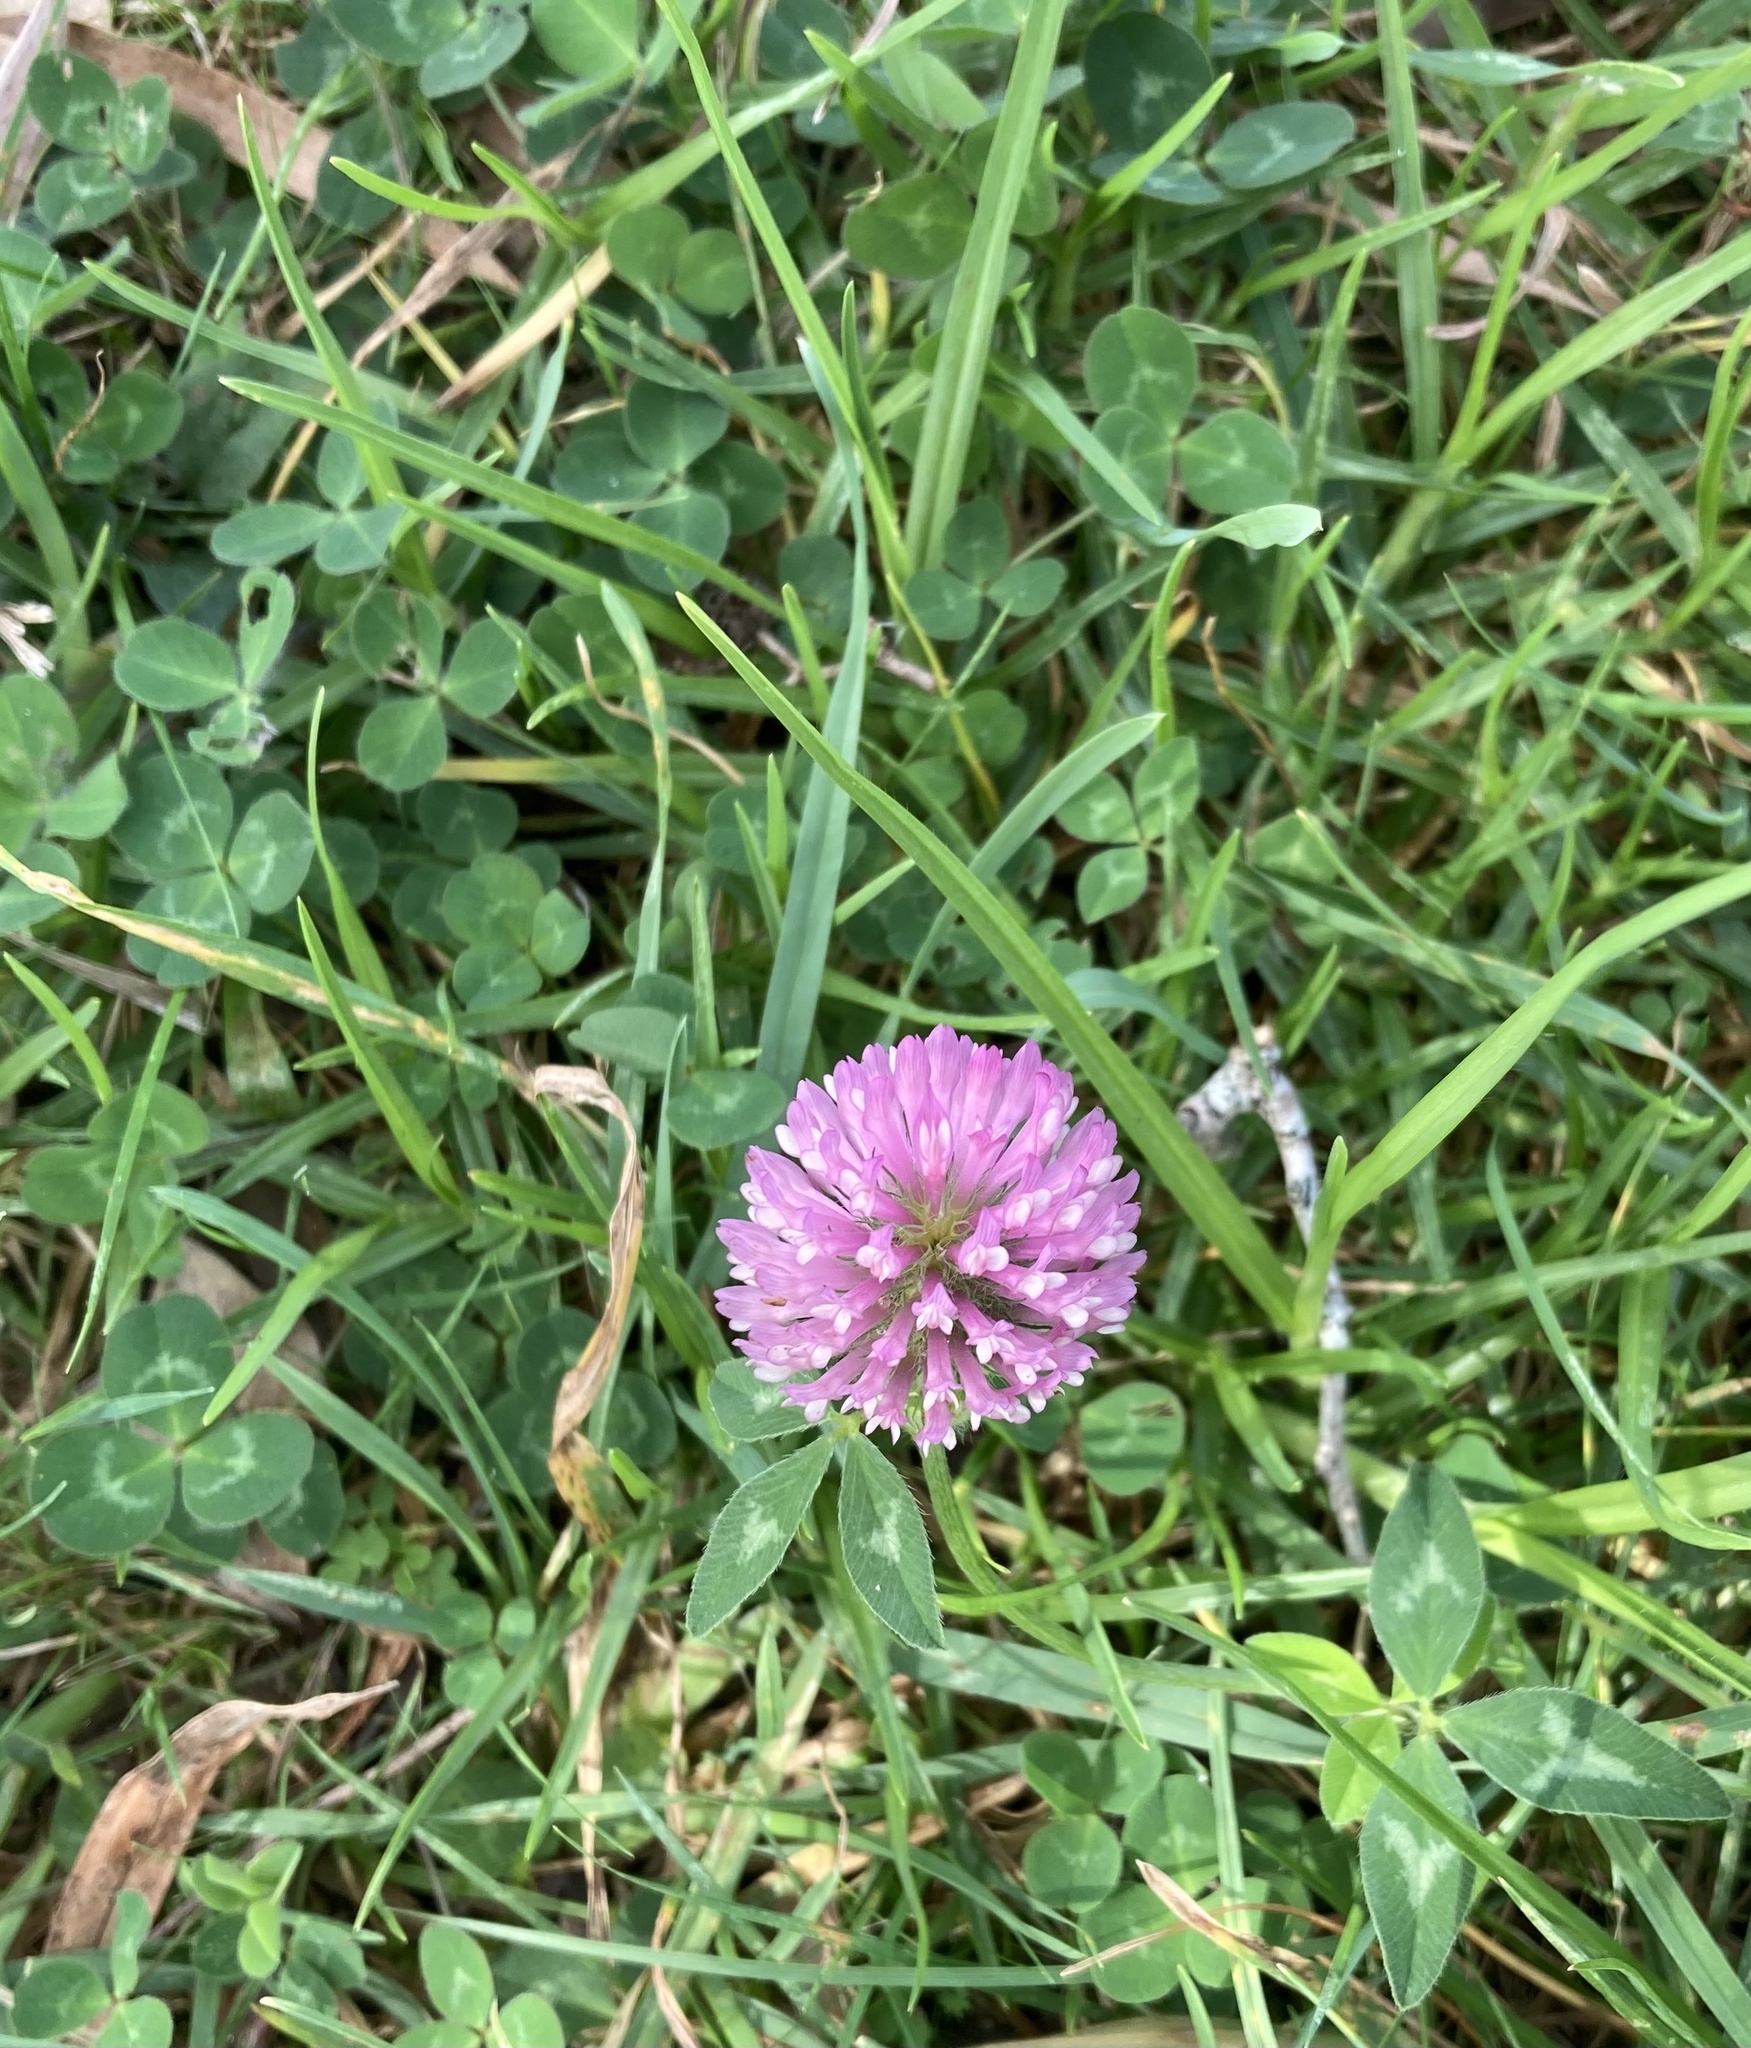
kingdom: Plantae
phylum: Tracheophyta
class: Magnoliopsida
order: Fabales
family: Fabaceae
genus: Trifolium
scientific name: Trifolium pratense
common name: Red clover
